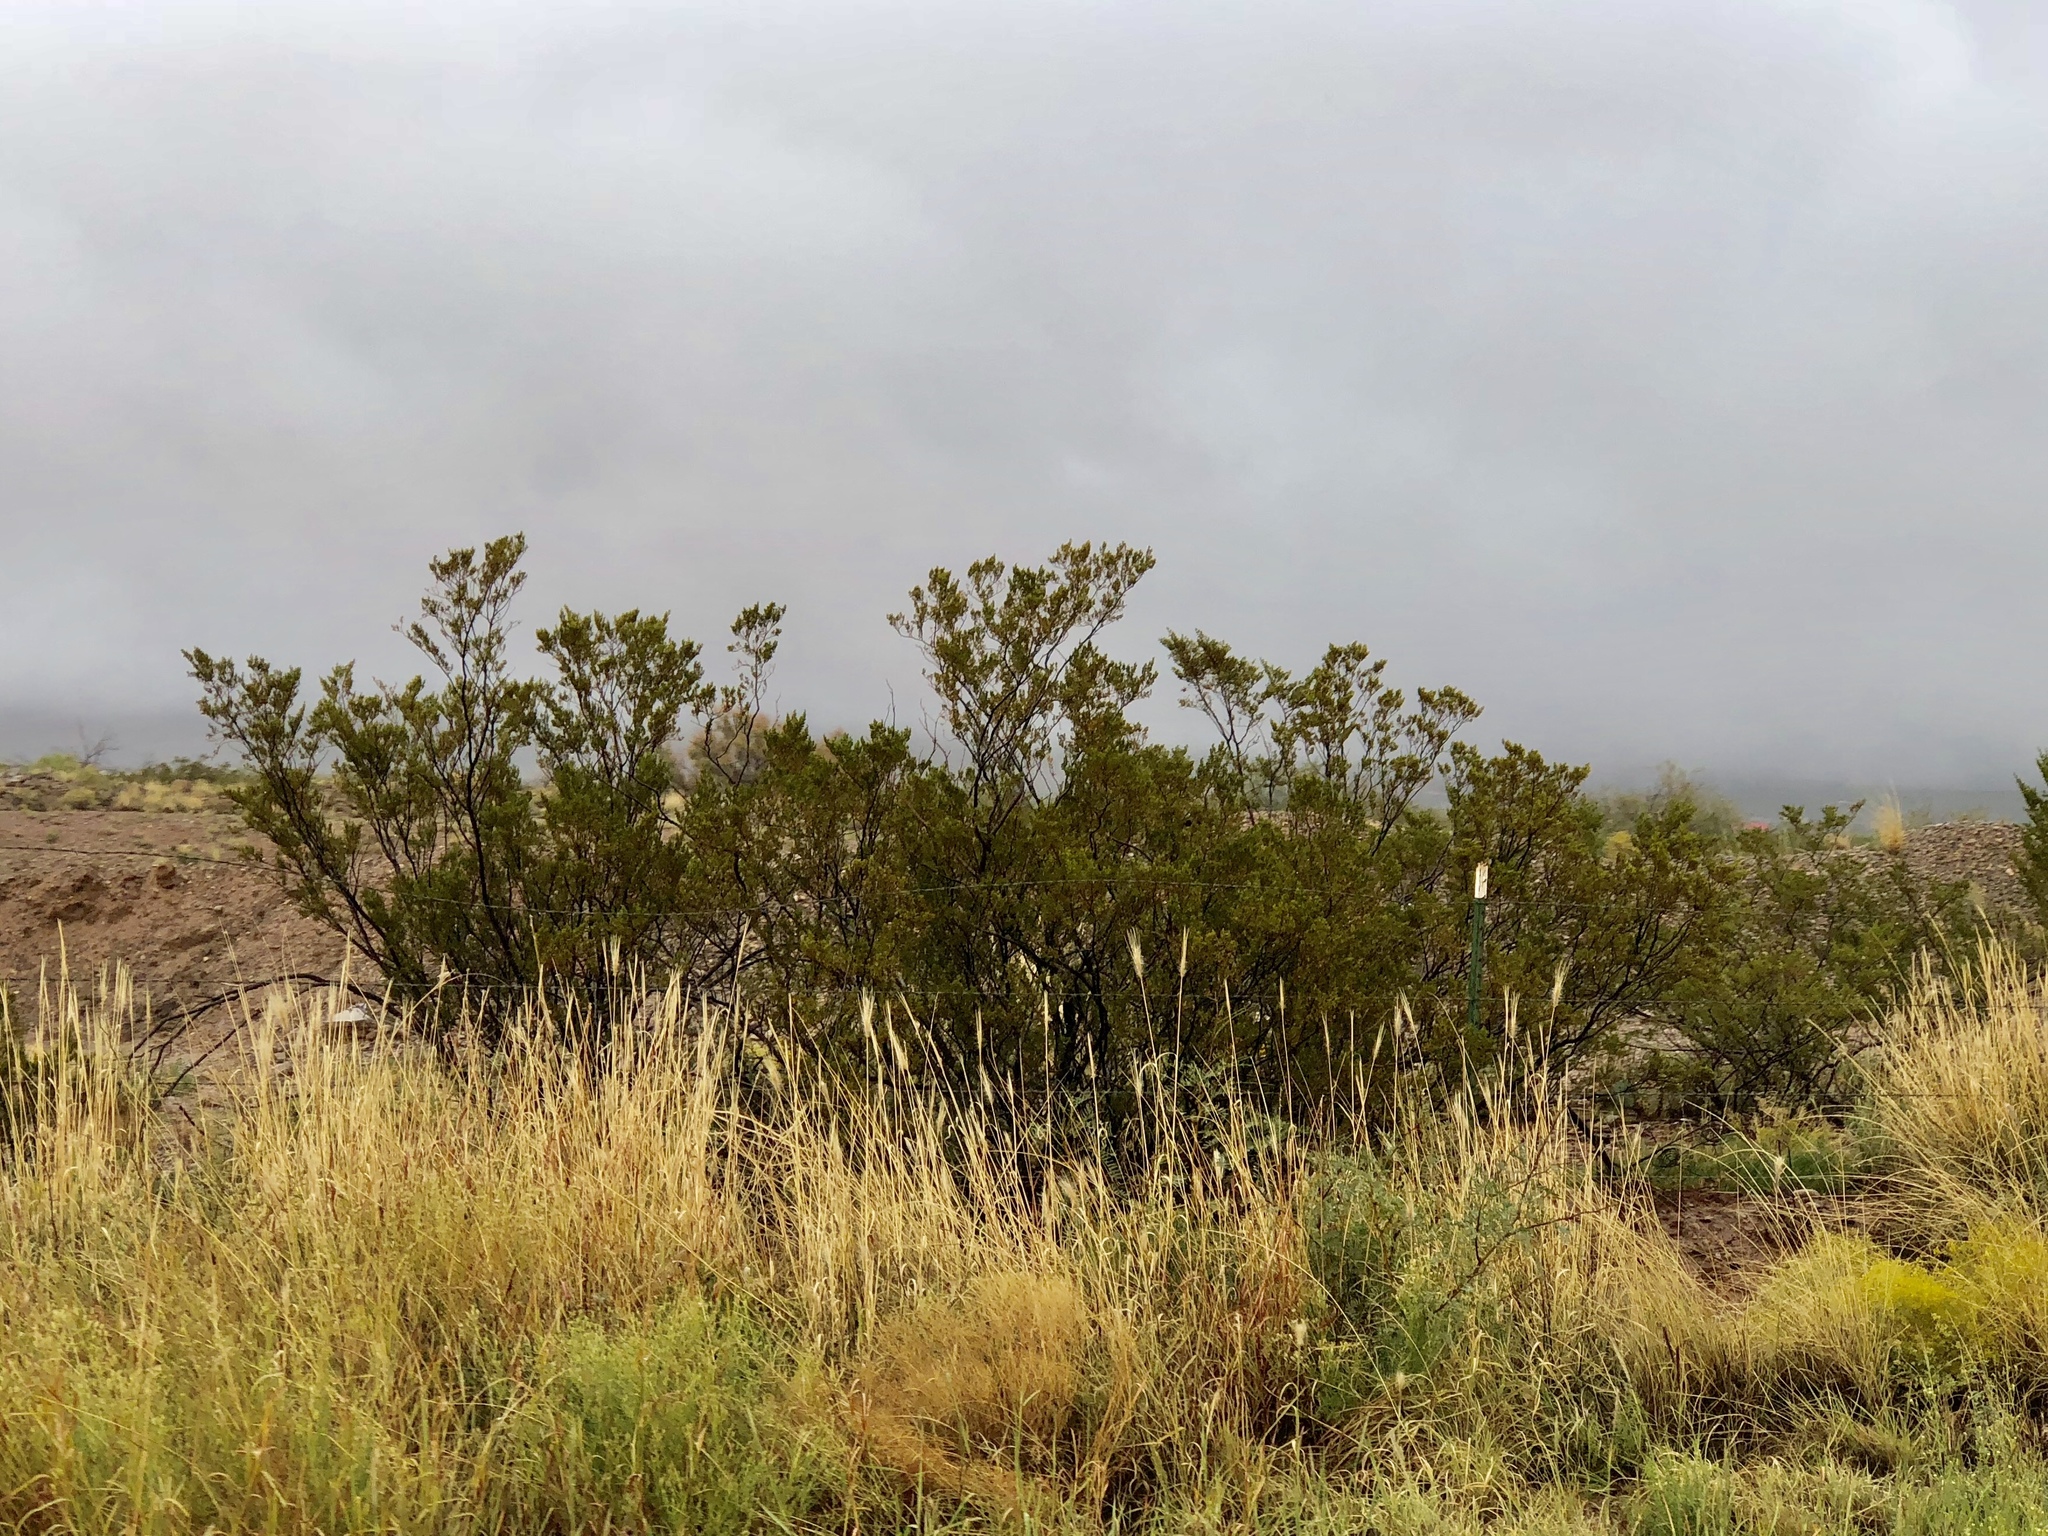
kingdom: Plantae
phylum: Tracheophyta
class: Magnoliopsida
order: Zygophyllales
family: Zygophyllaceae
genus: Larrea
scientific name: Larrea tridentata
